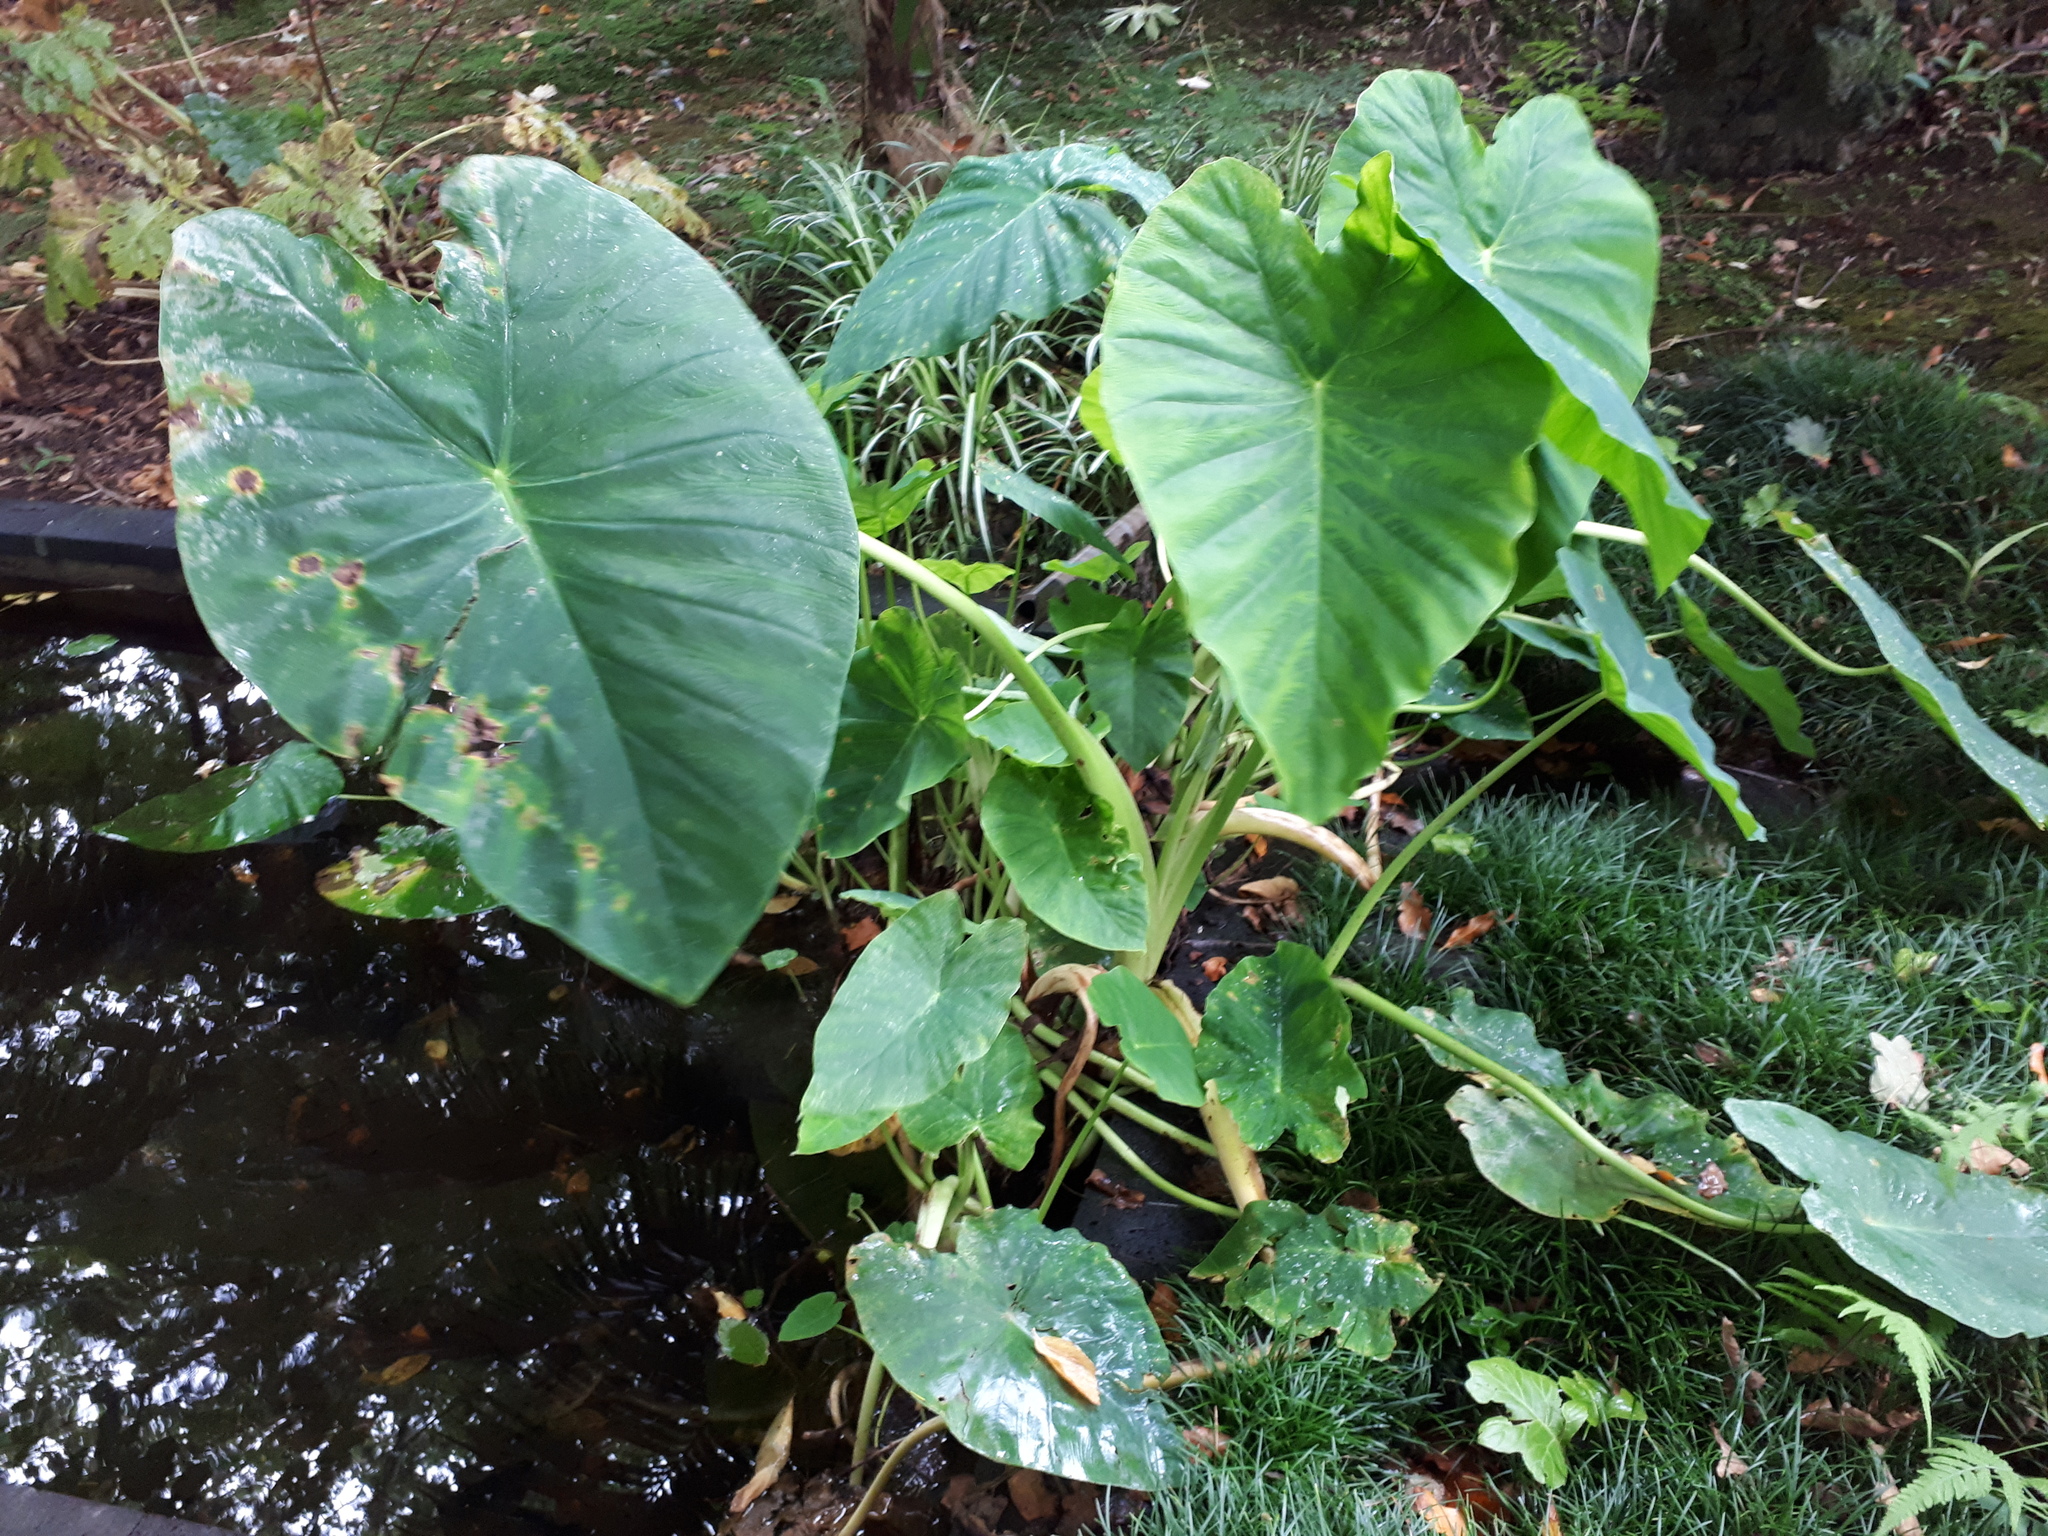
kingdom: Plantae
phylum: Tracheophyta
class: Liliopsida
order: Alismatales
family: Araceae
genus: Colocasia
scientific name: Colocasia esculenta
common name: Taro
